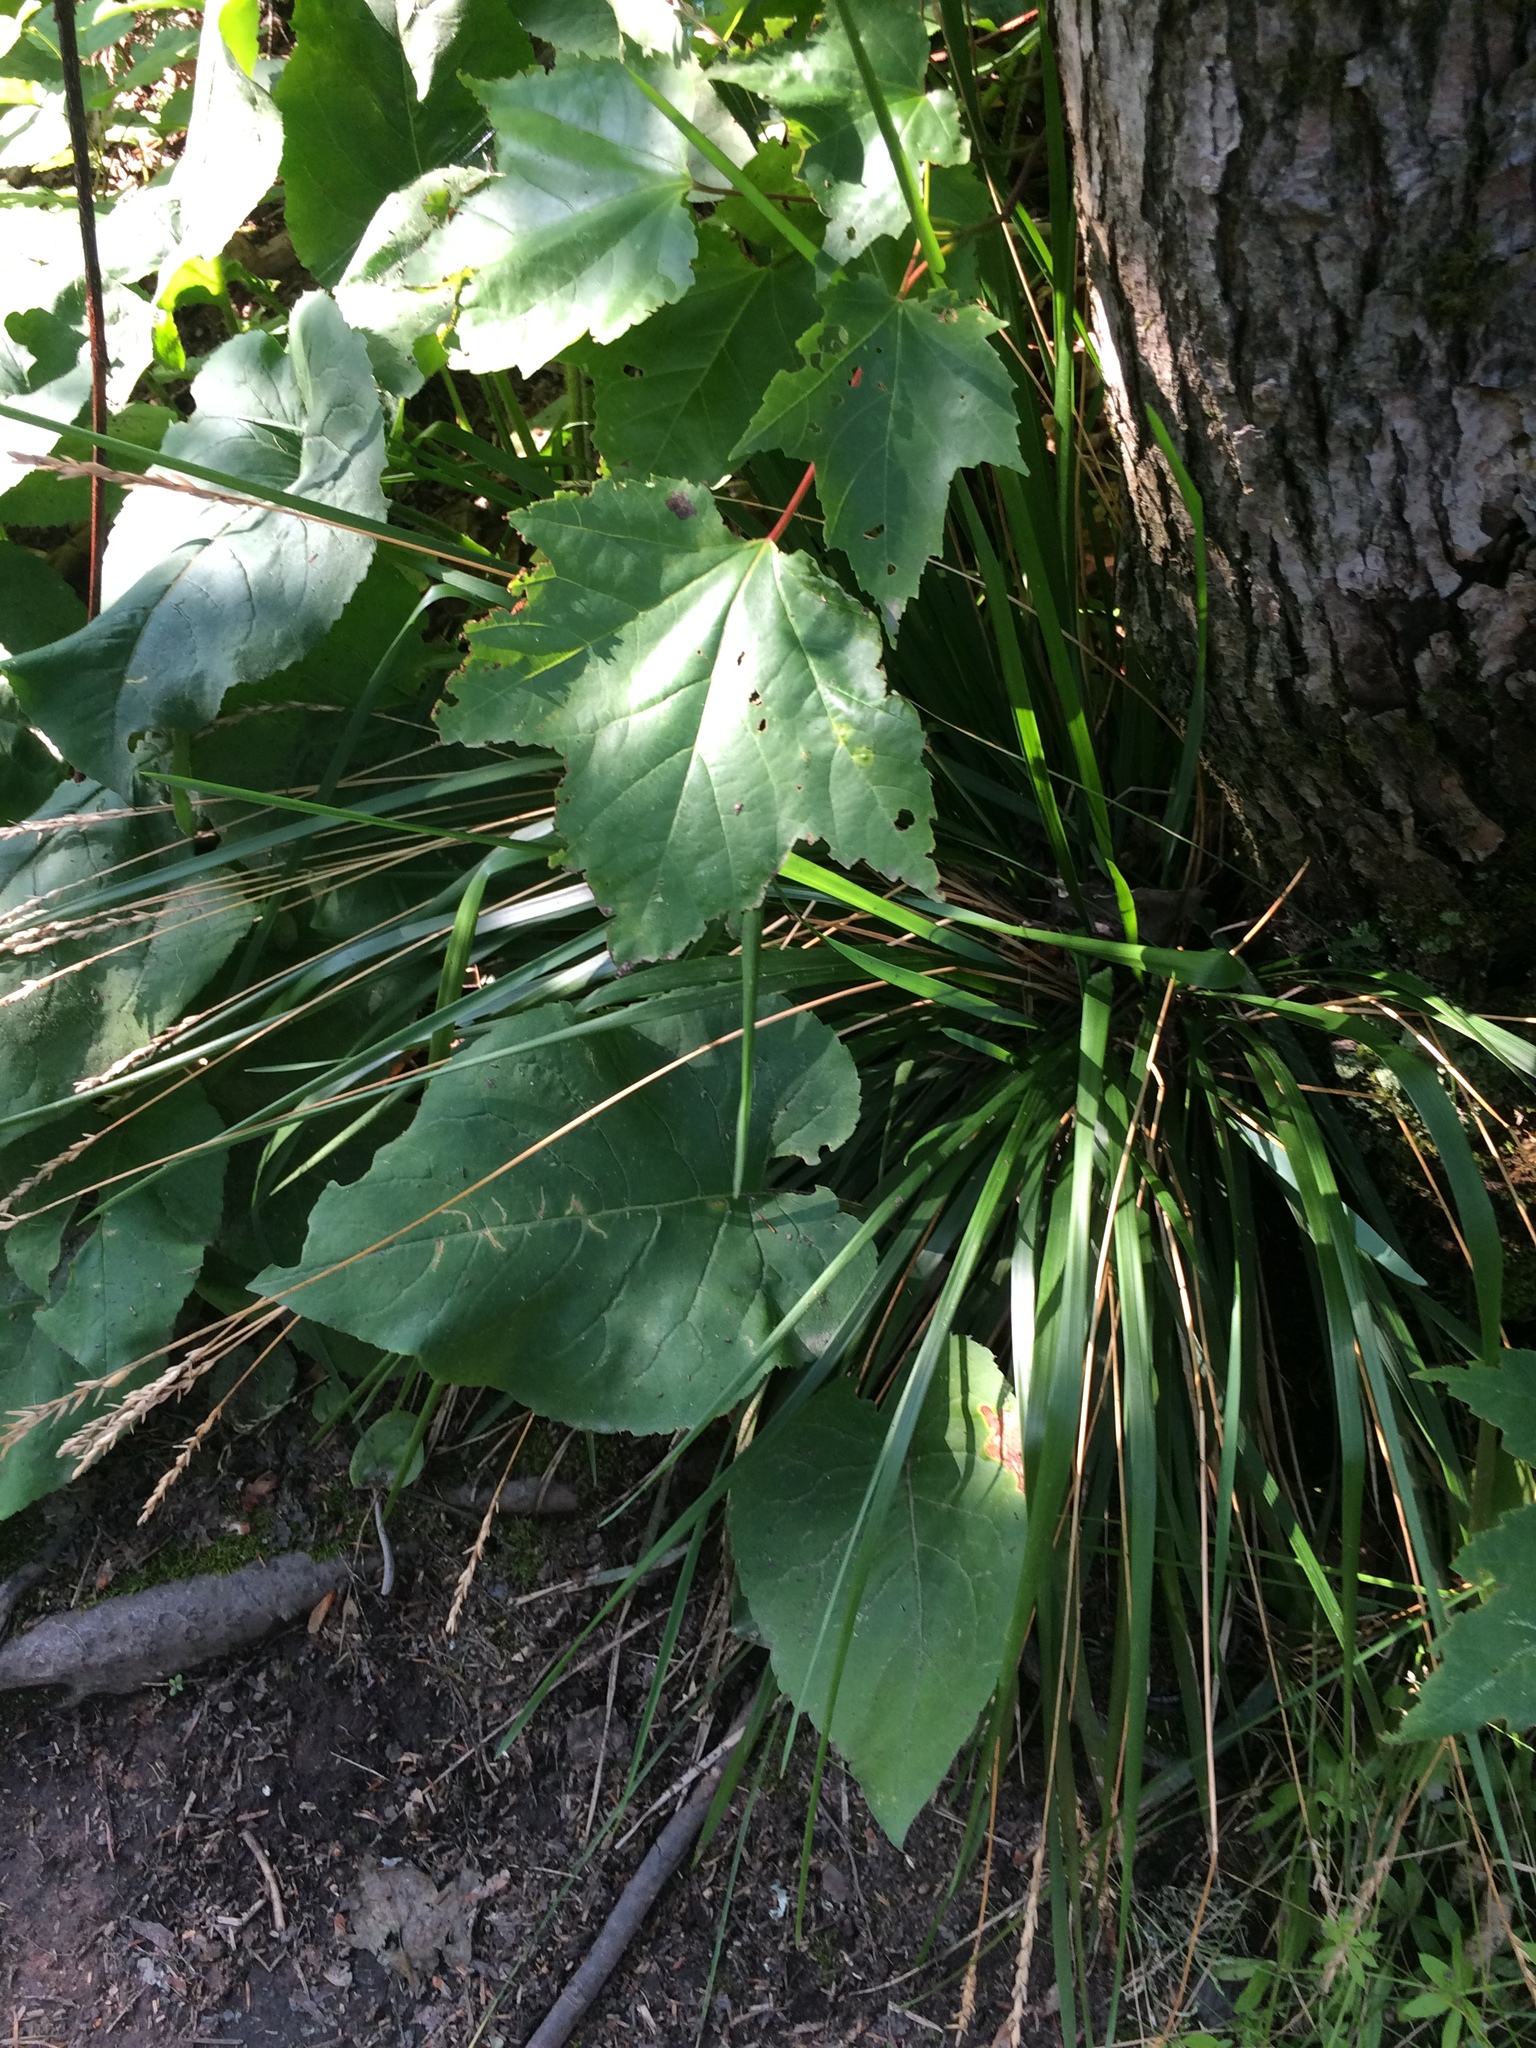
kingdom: Plantae
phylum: Tracheophyta
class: Liliopsida
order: Poales
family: Poaceae
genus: Oryzopsis
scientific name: Oryzopsis asperifolia
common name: Rough-leaved mountain rice
